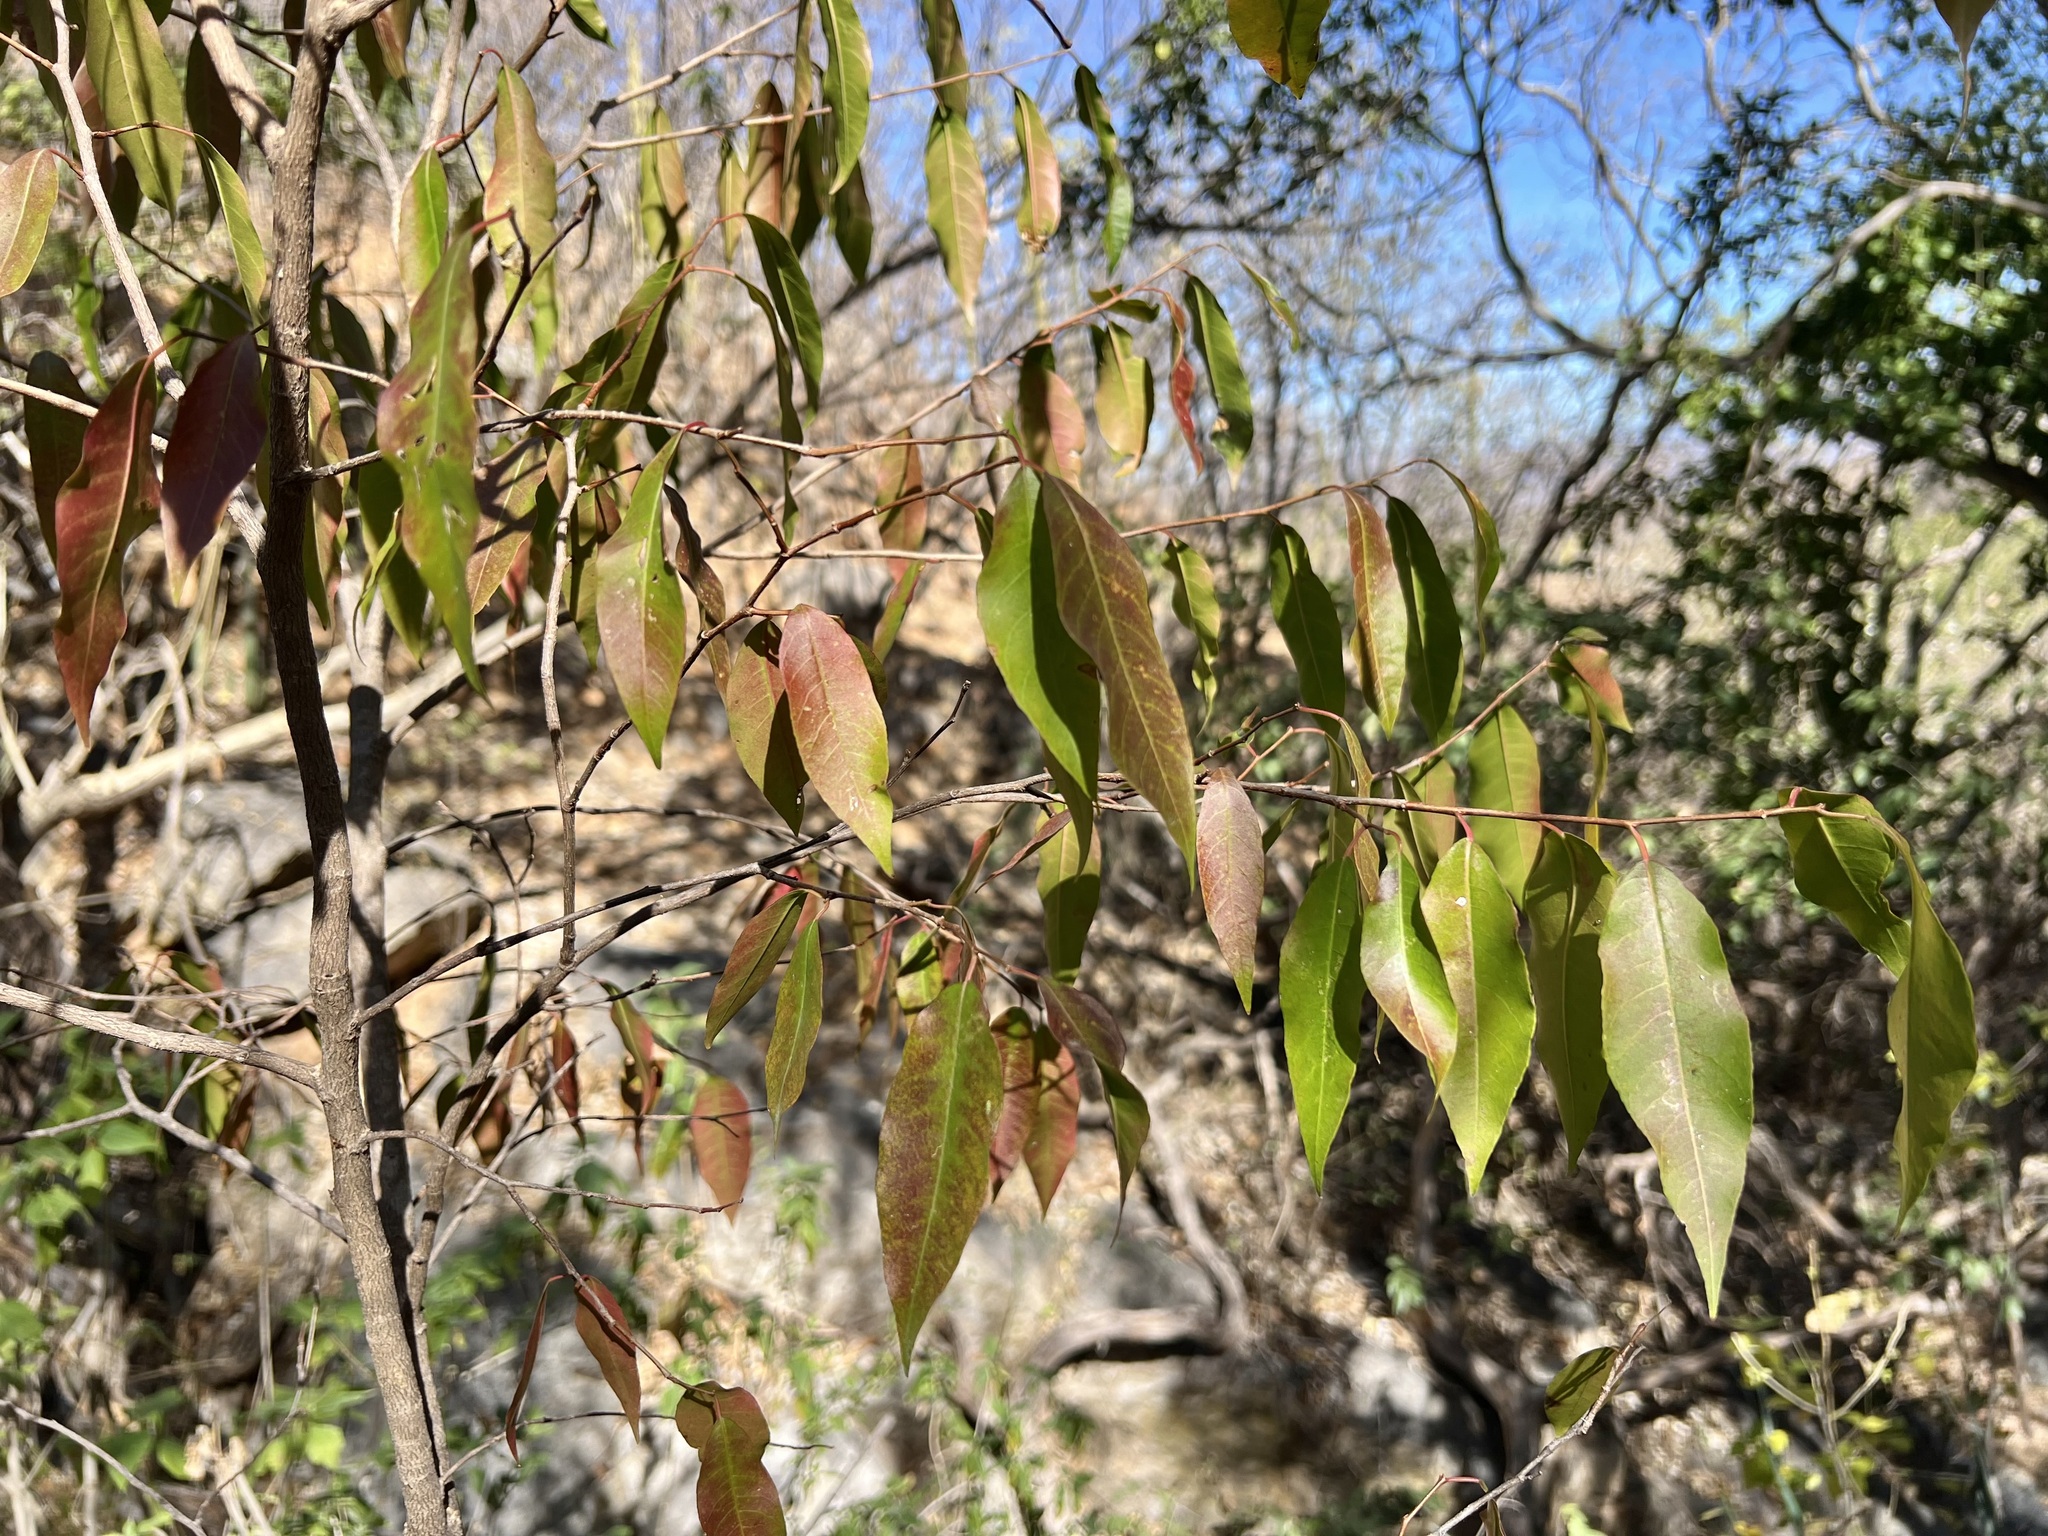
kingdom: Plantae
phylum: Tracheophyta
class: Magnoliopsida
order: Santalales
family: Opiliaceae
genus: Agonandra
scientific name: Agonandra racemosa
